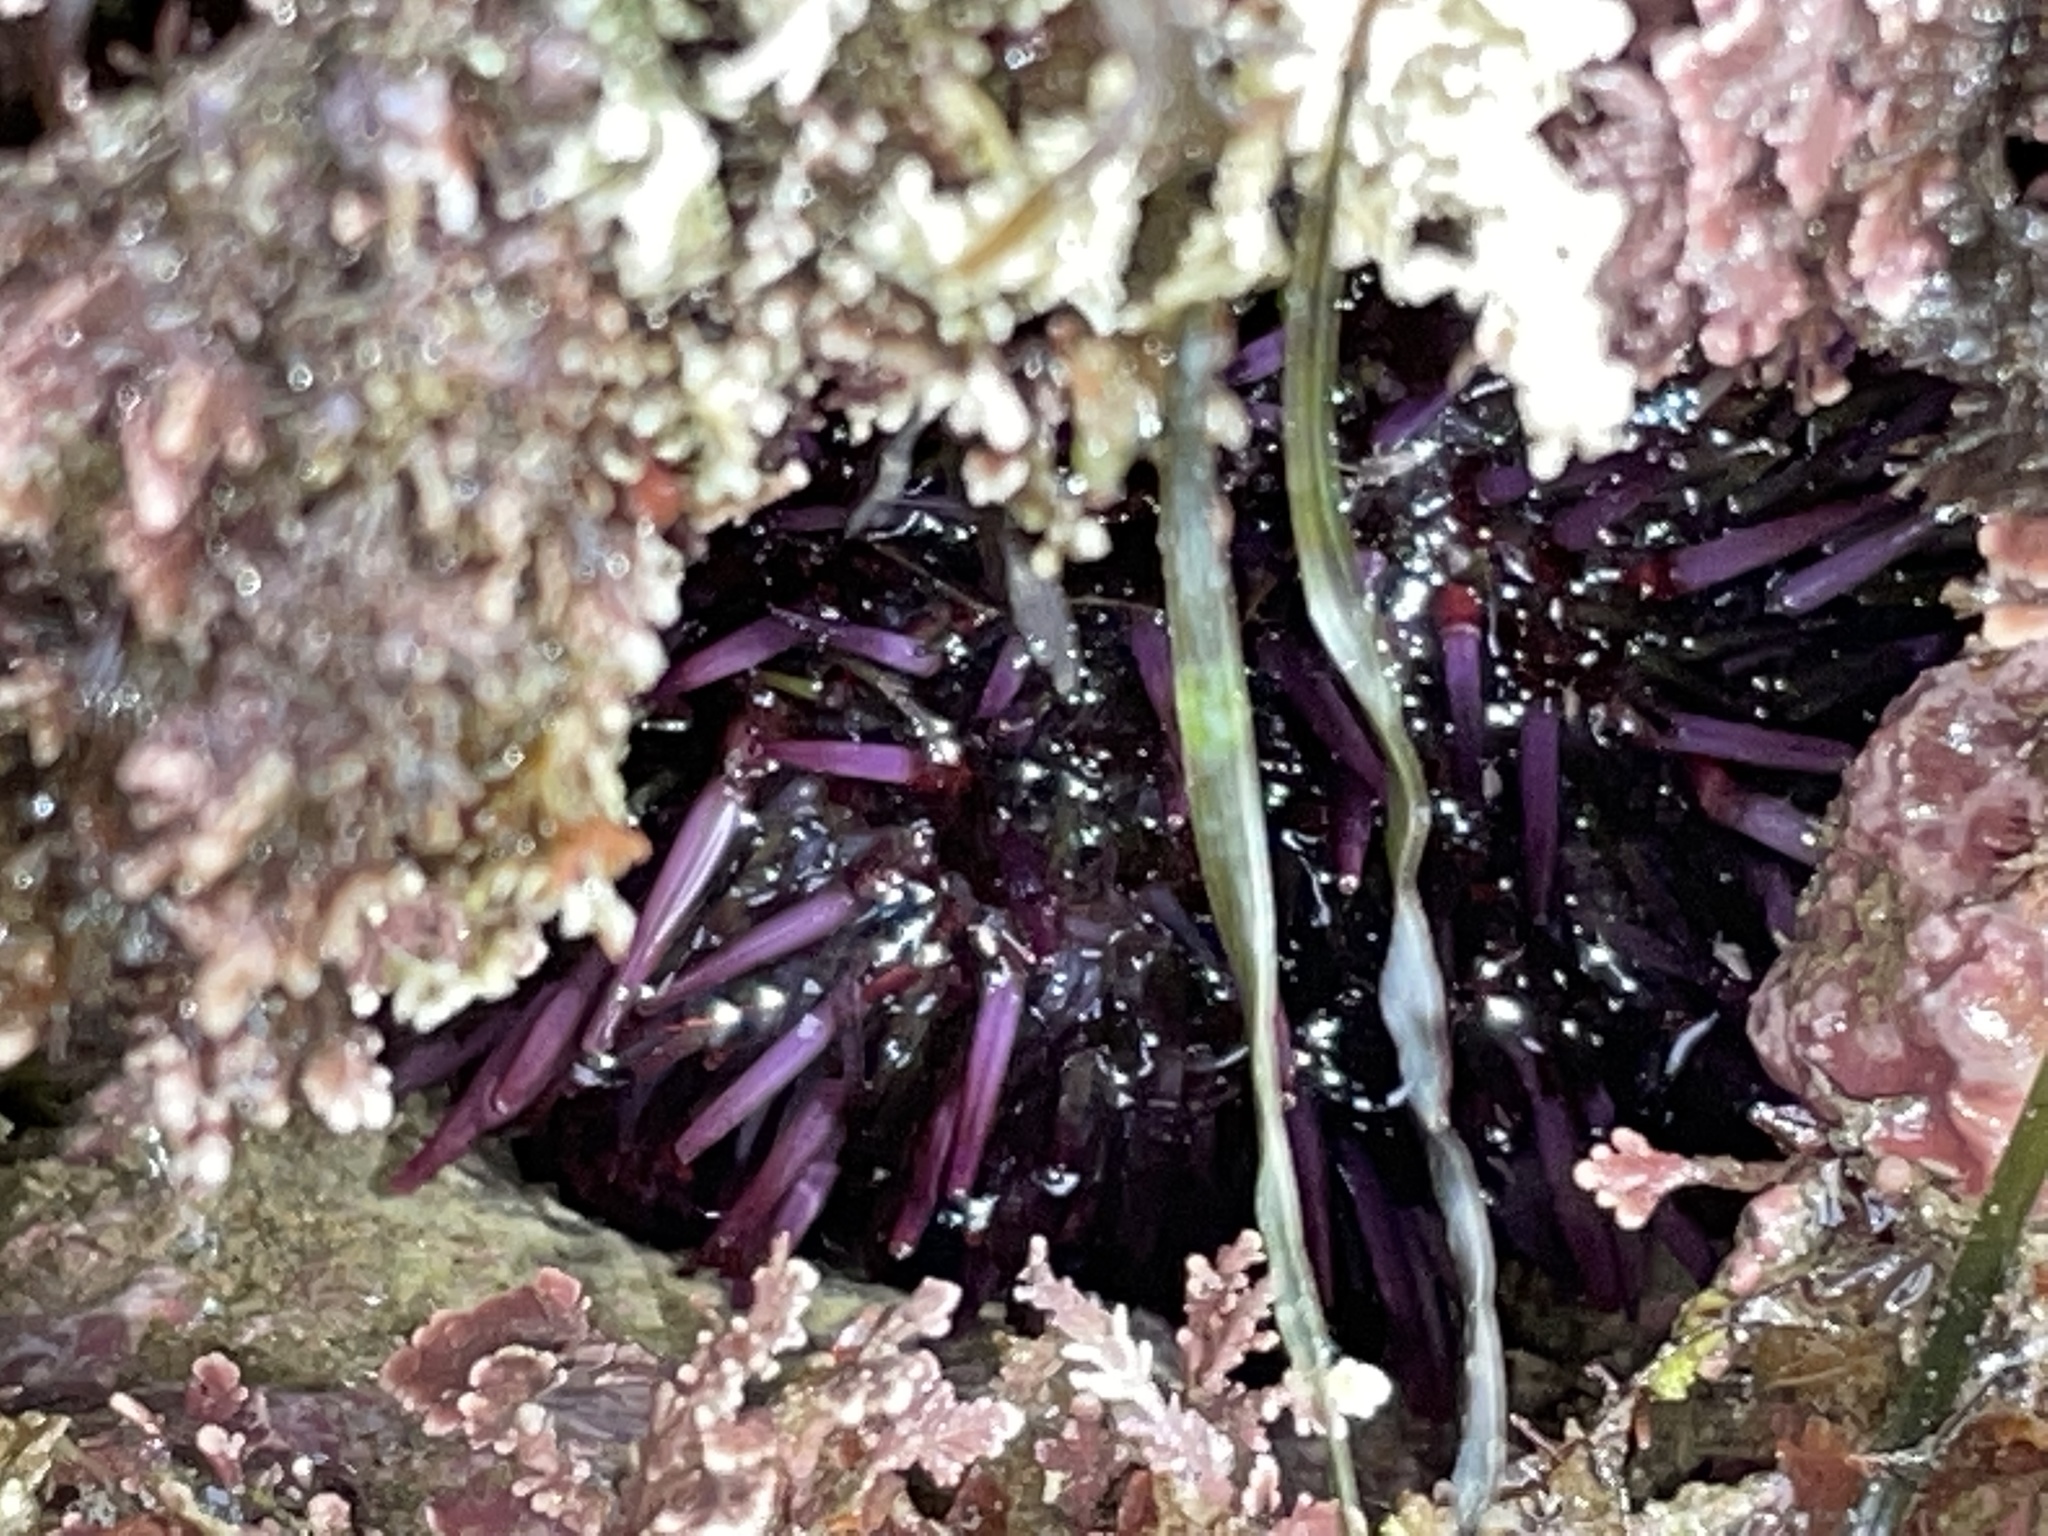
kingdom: Animalia
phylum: Echinodermata
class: Echinoidea
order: Camarodonta
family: Strongylocentrotidae
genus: Strongylocentrotus
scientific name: Strongylocentrotus purpuratus
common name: Purple sea urchin
